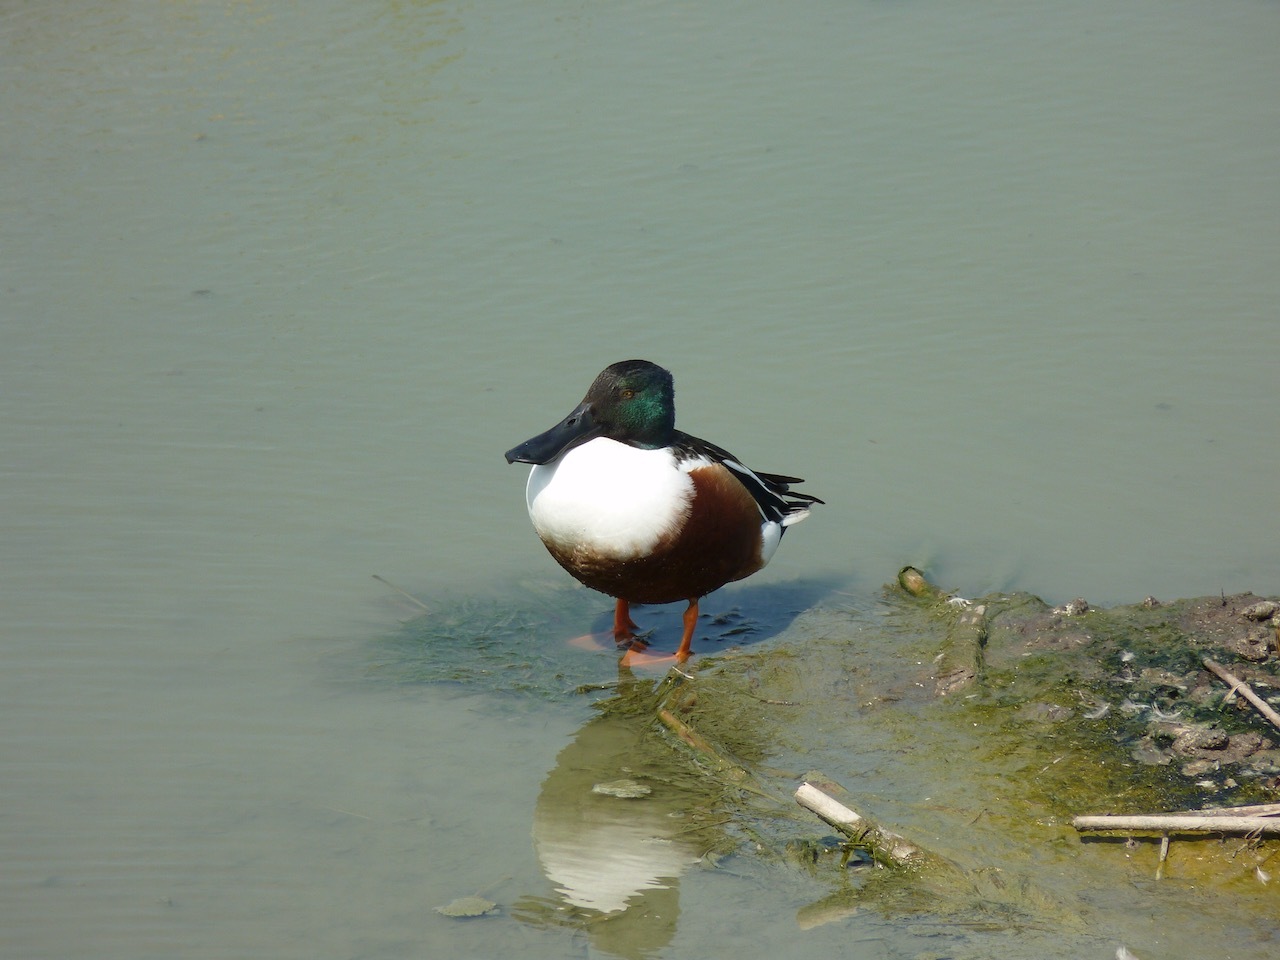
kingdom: Animalia
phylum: Chordata
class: Aves
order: Anseriformes
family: Anatidae
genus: Spatula
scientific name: Spatula clypeata
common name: Northern shoveler
